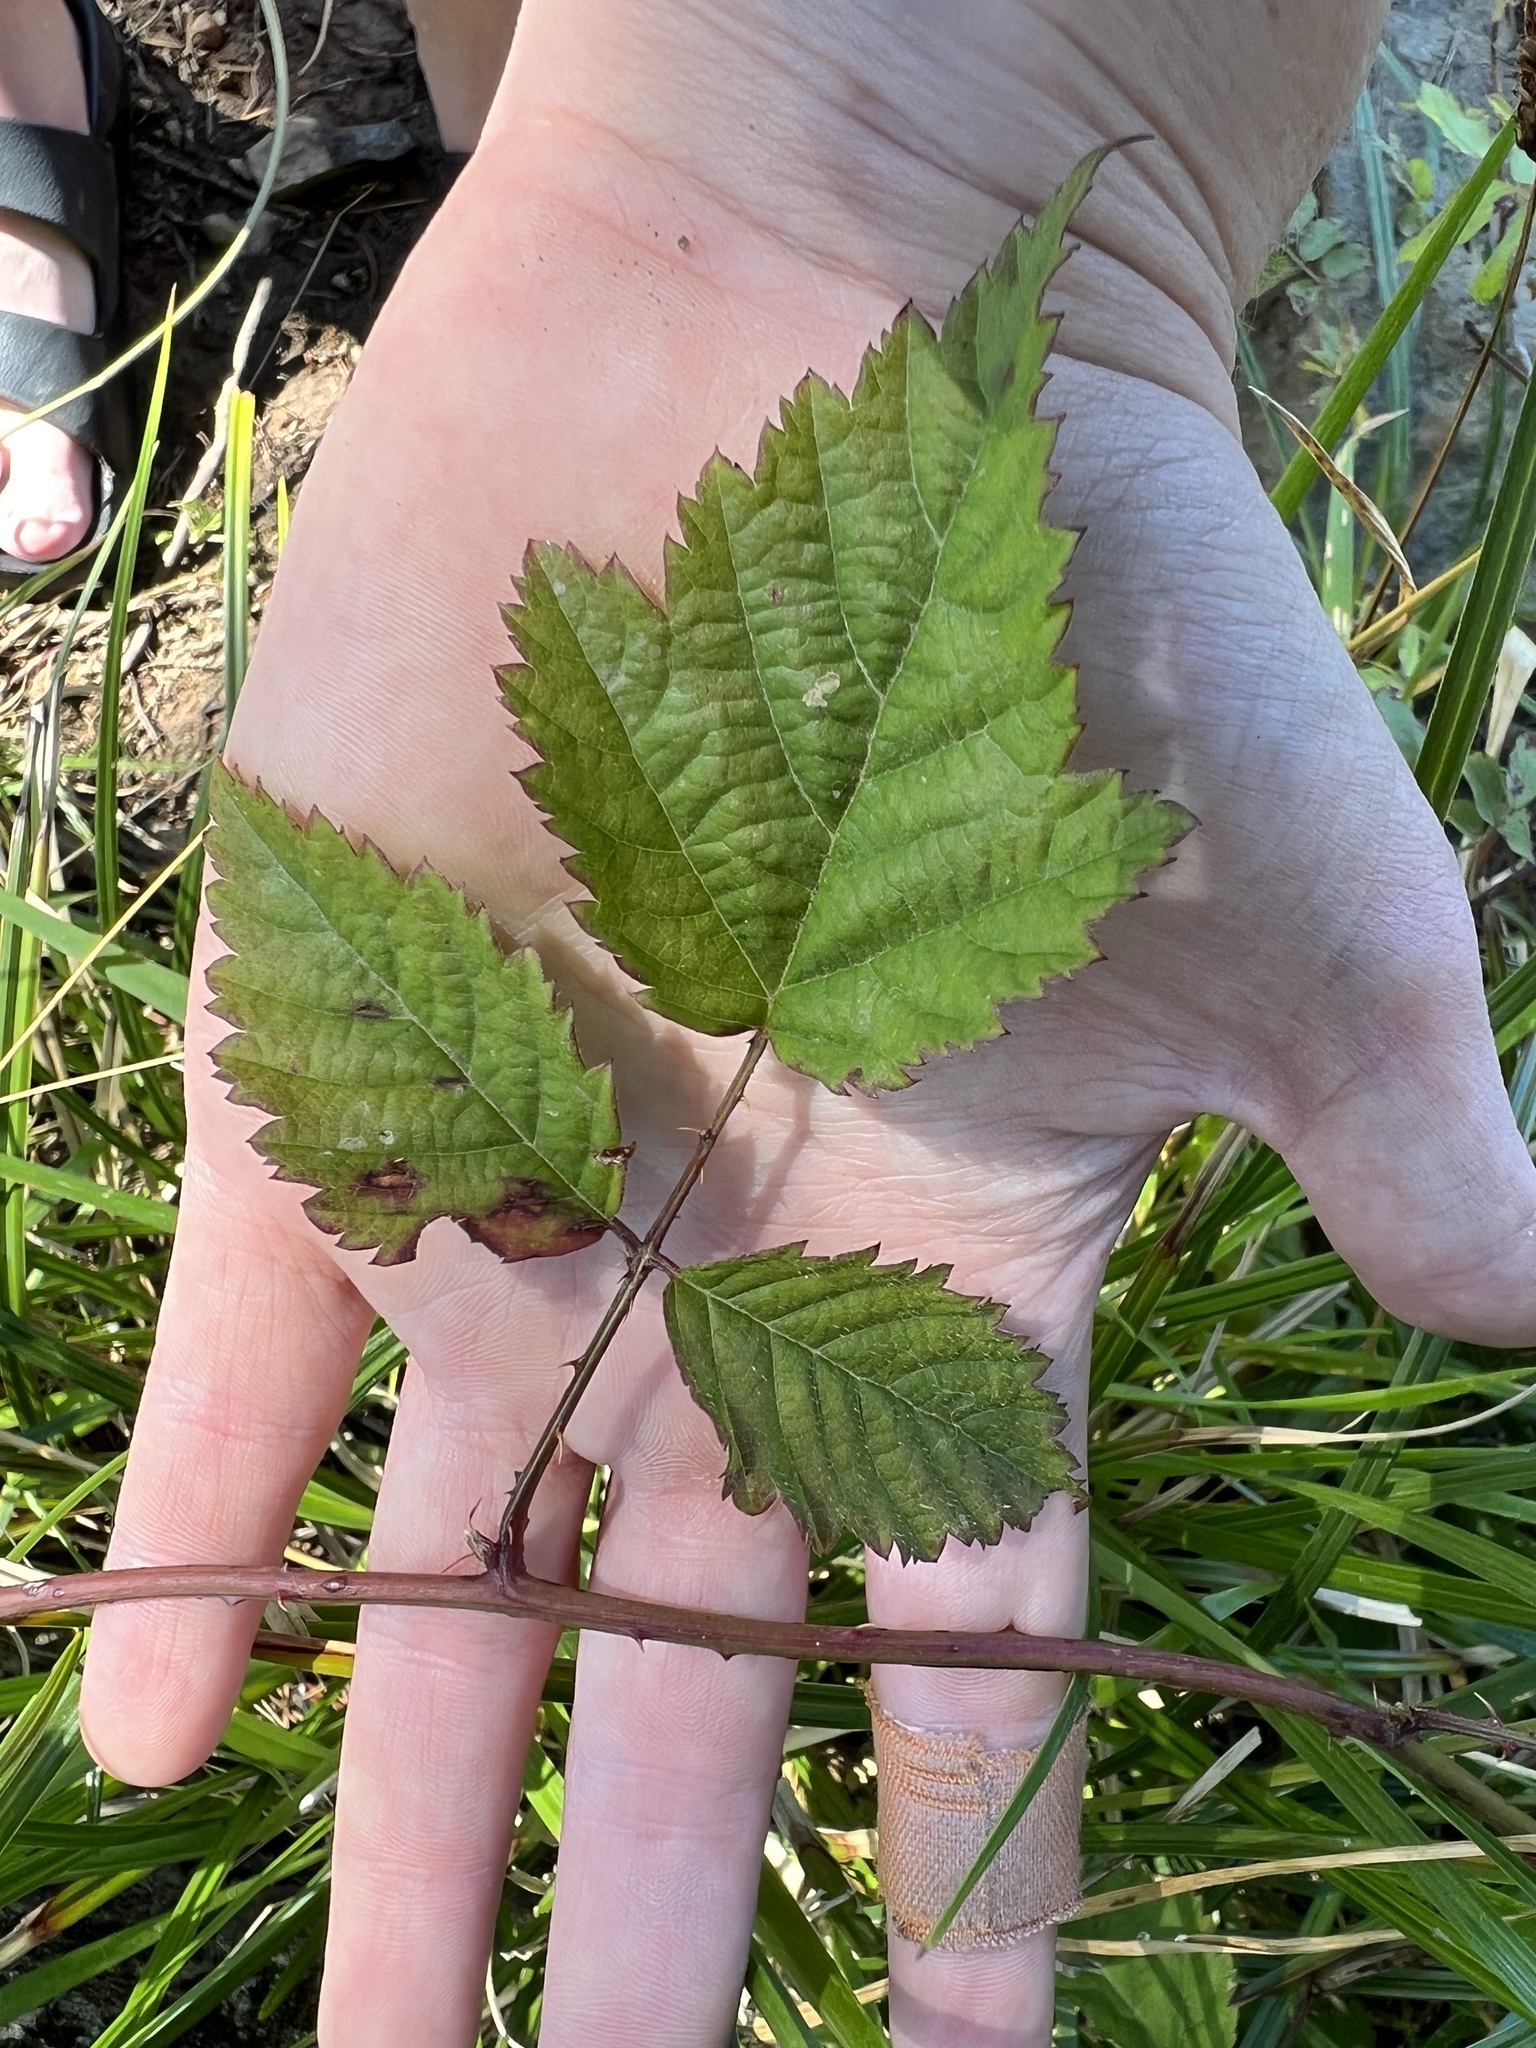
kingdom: Plantae
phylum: Tracheophyta
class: Magnoliopsida
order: Rosales
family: Rosaceae
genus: Rubus
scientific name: Rubus ursinus
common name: Pacific blackberry
